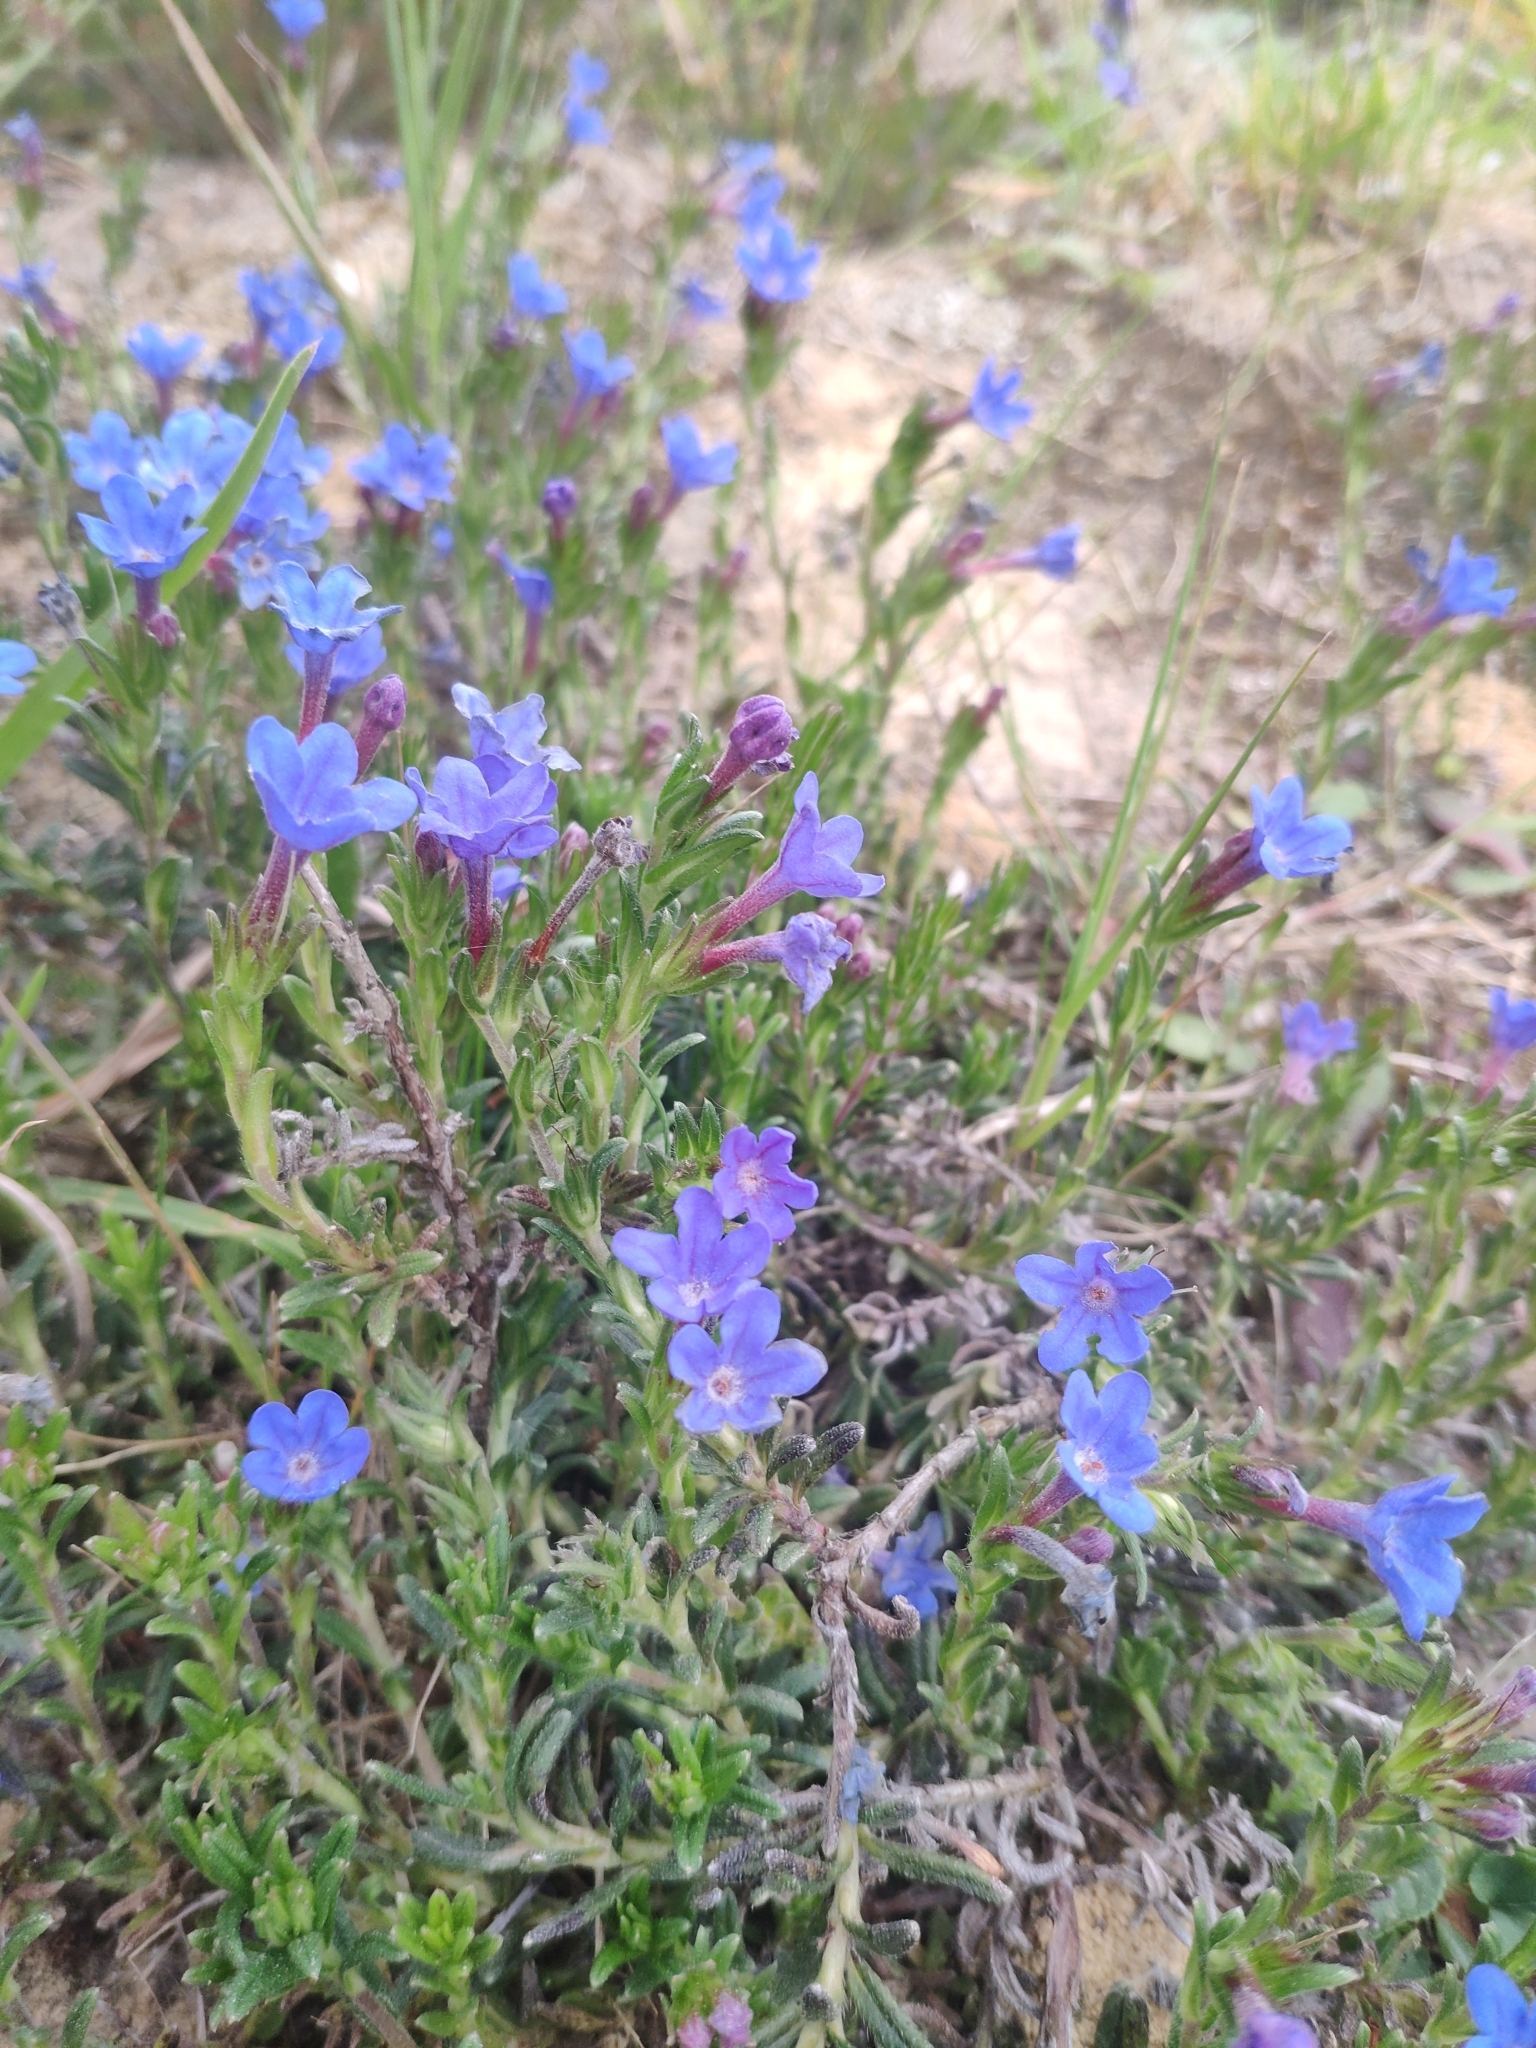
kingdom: Plantae
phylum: Tracheophyta
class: Magnoliopsida
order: Boraginales
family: Boraginaceae
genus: Glandora
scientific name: Glandora prostrata
